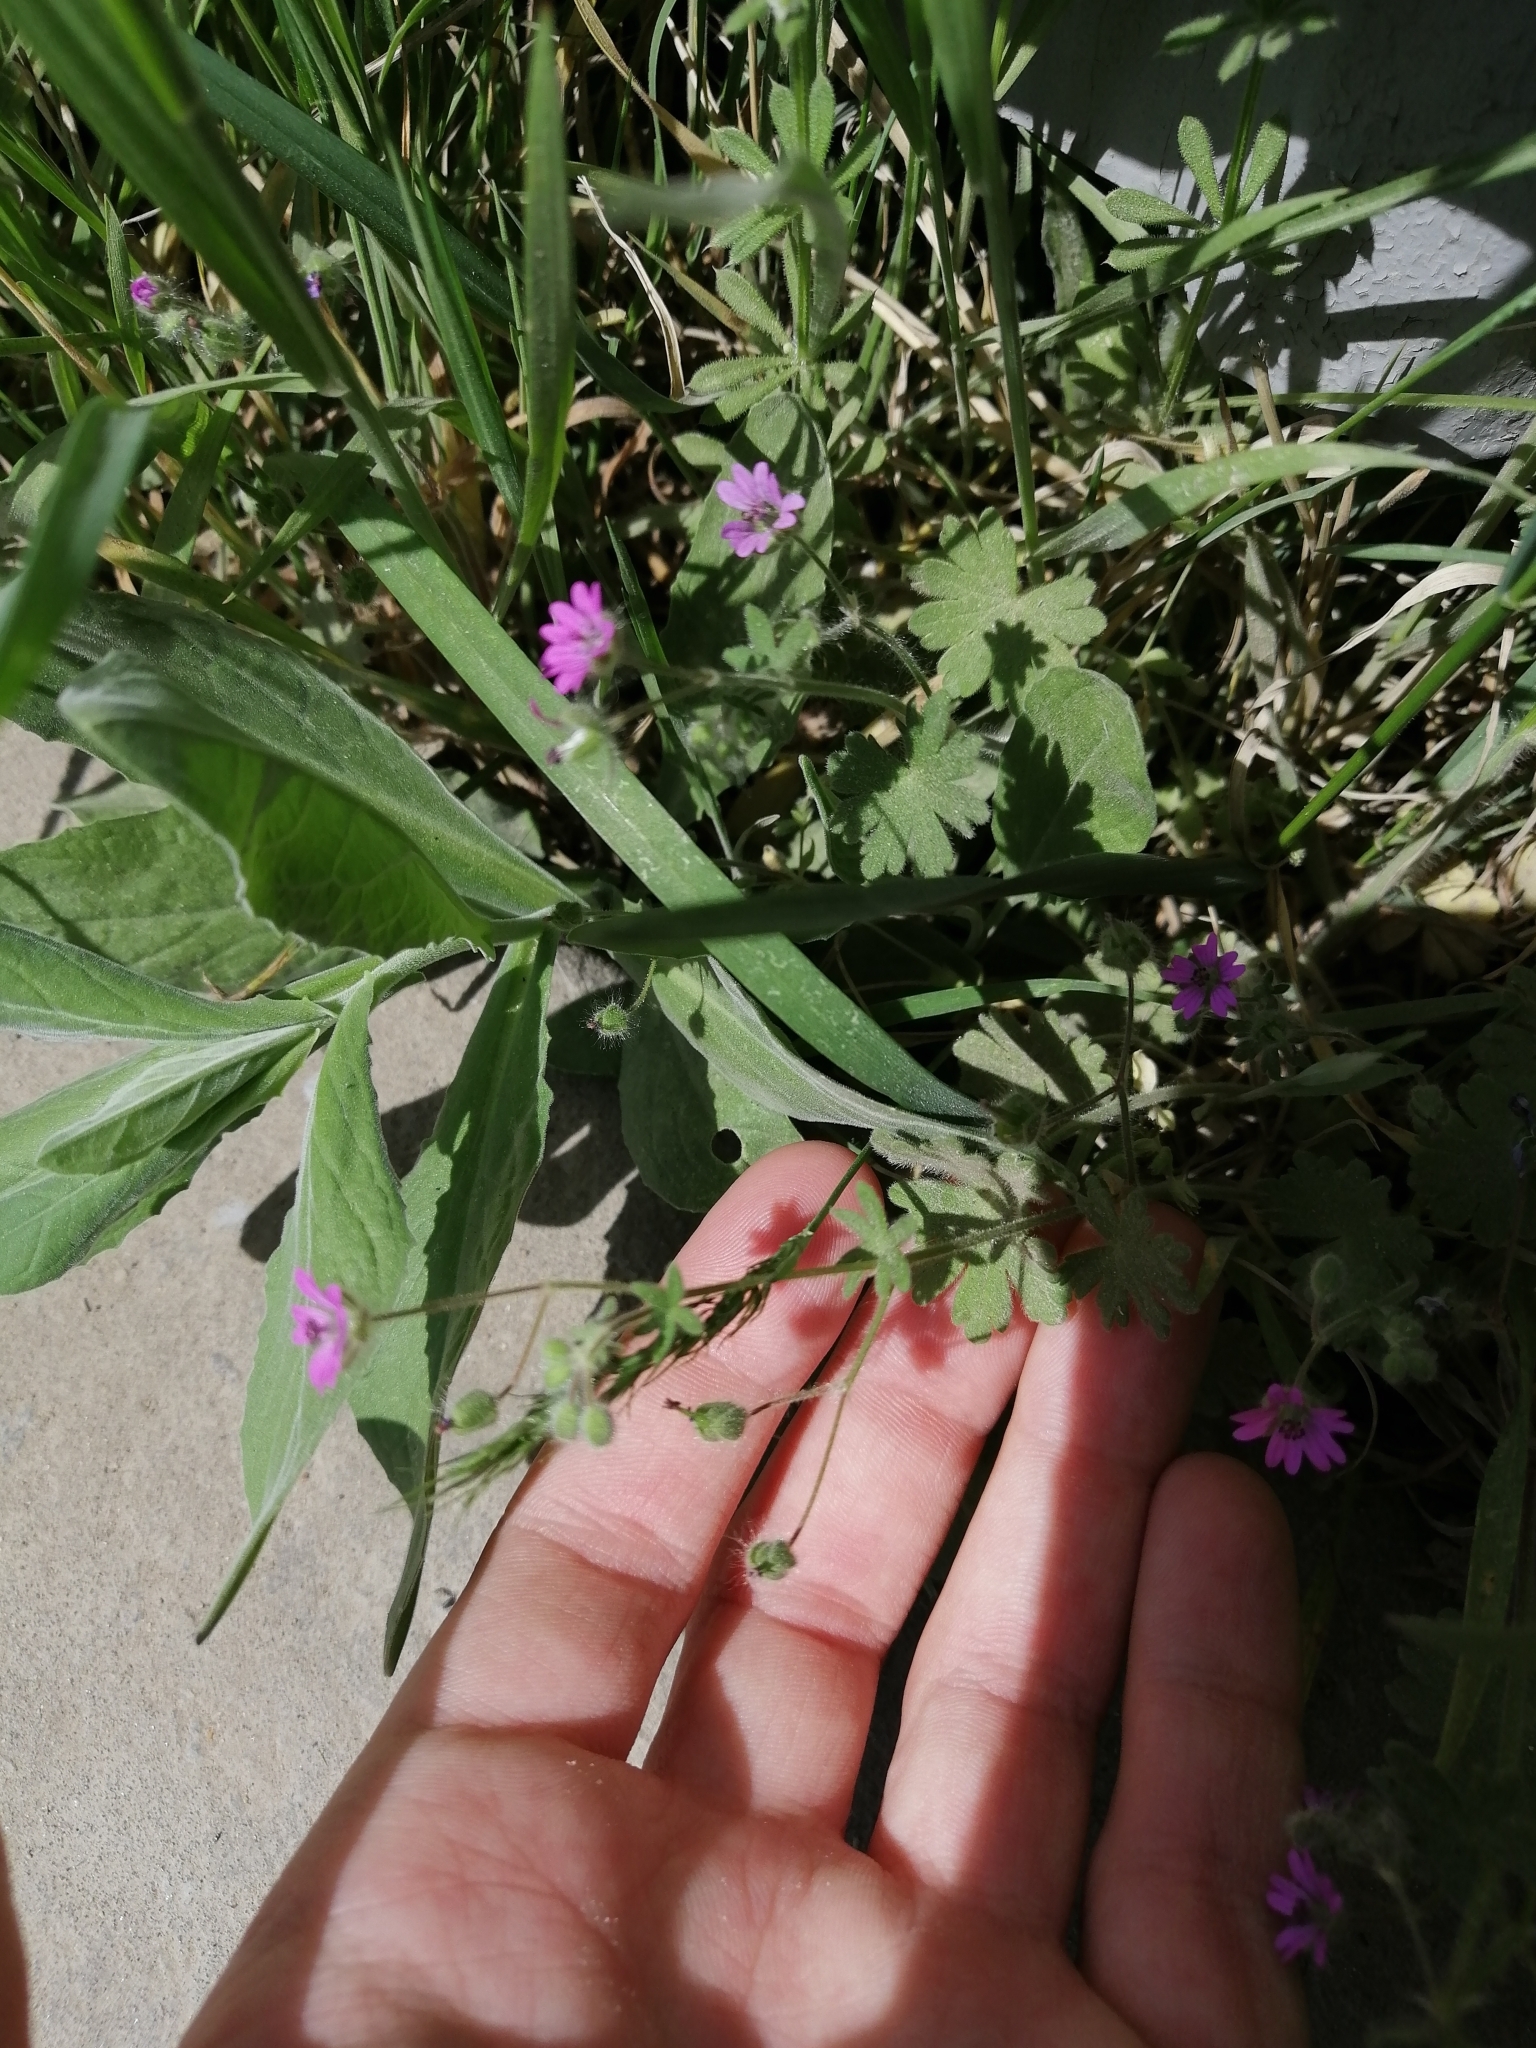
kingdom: Plantae
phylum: Tracheophyta
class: Magnoliopsida
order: Geraniales
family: Geraniaceae
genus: Geranium
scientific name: Geranium molle
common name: Dove's-foot crane's-bill
